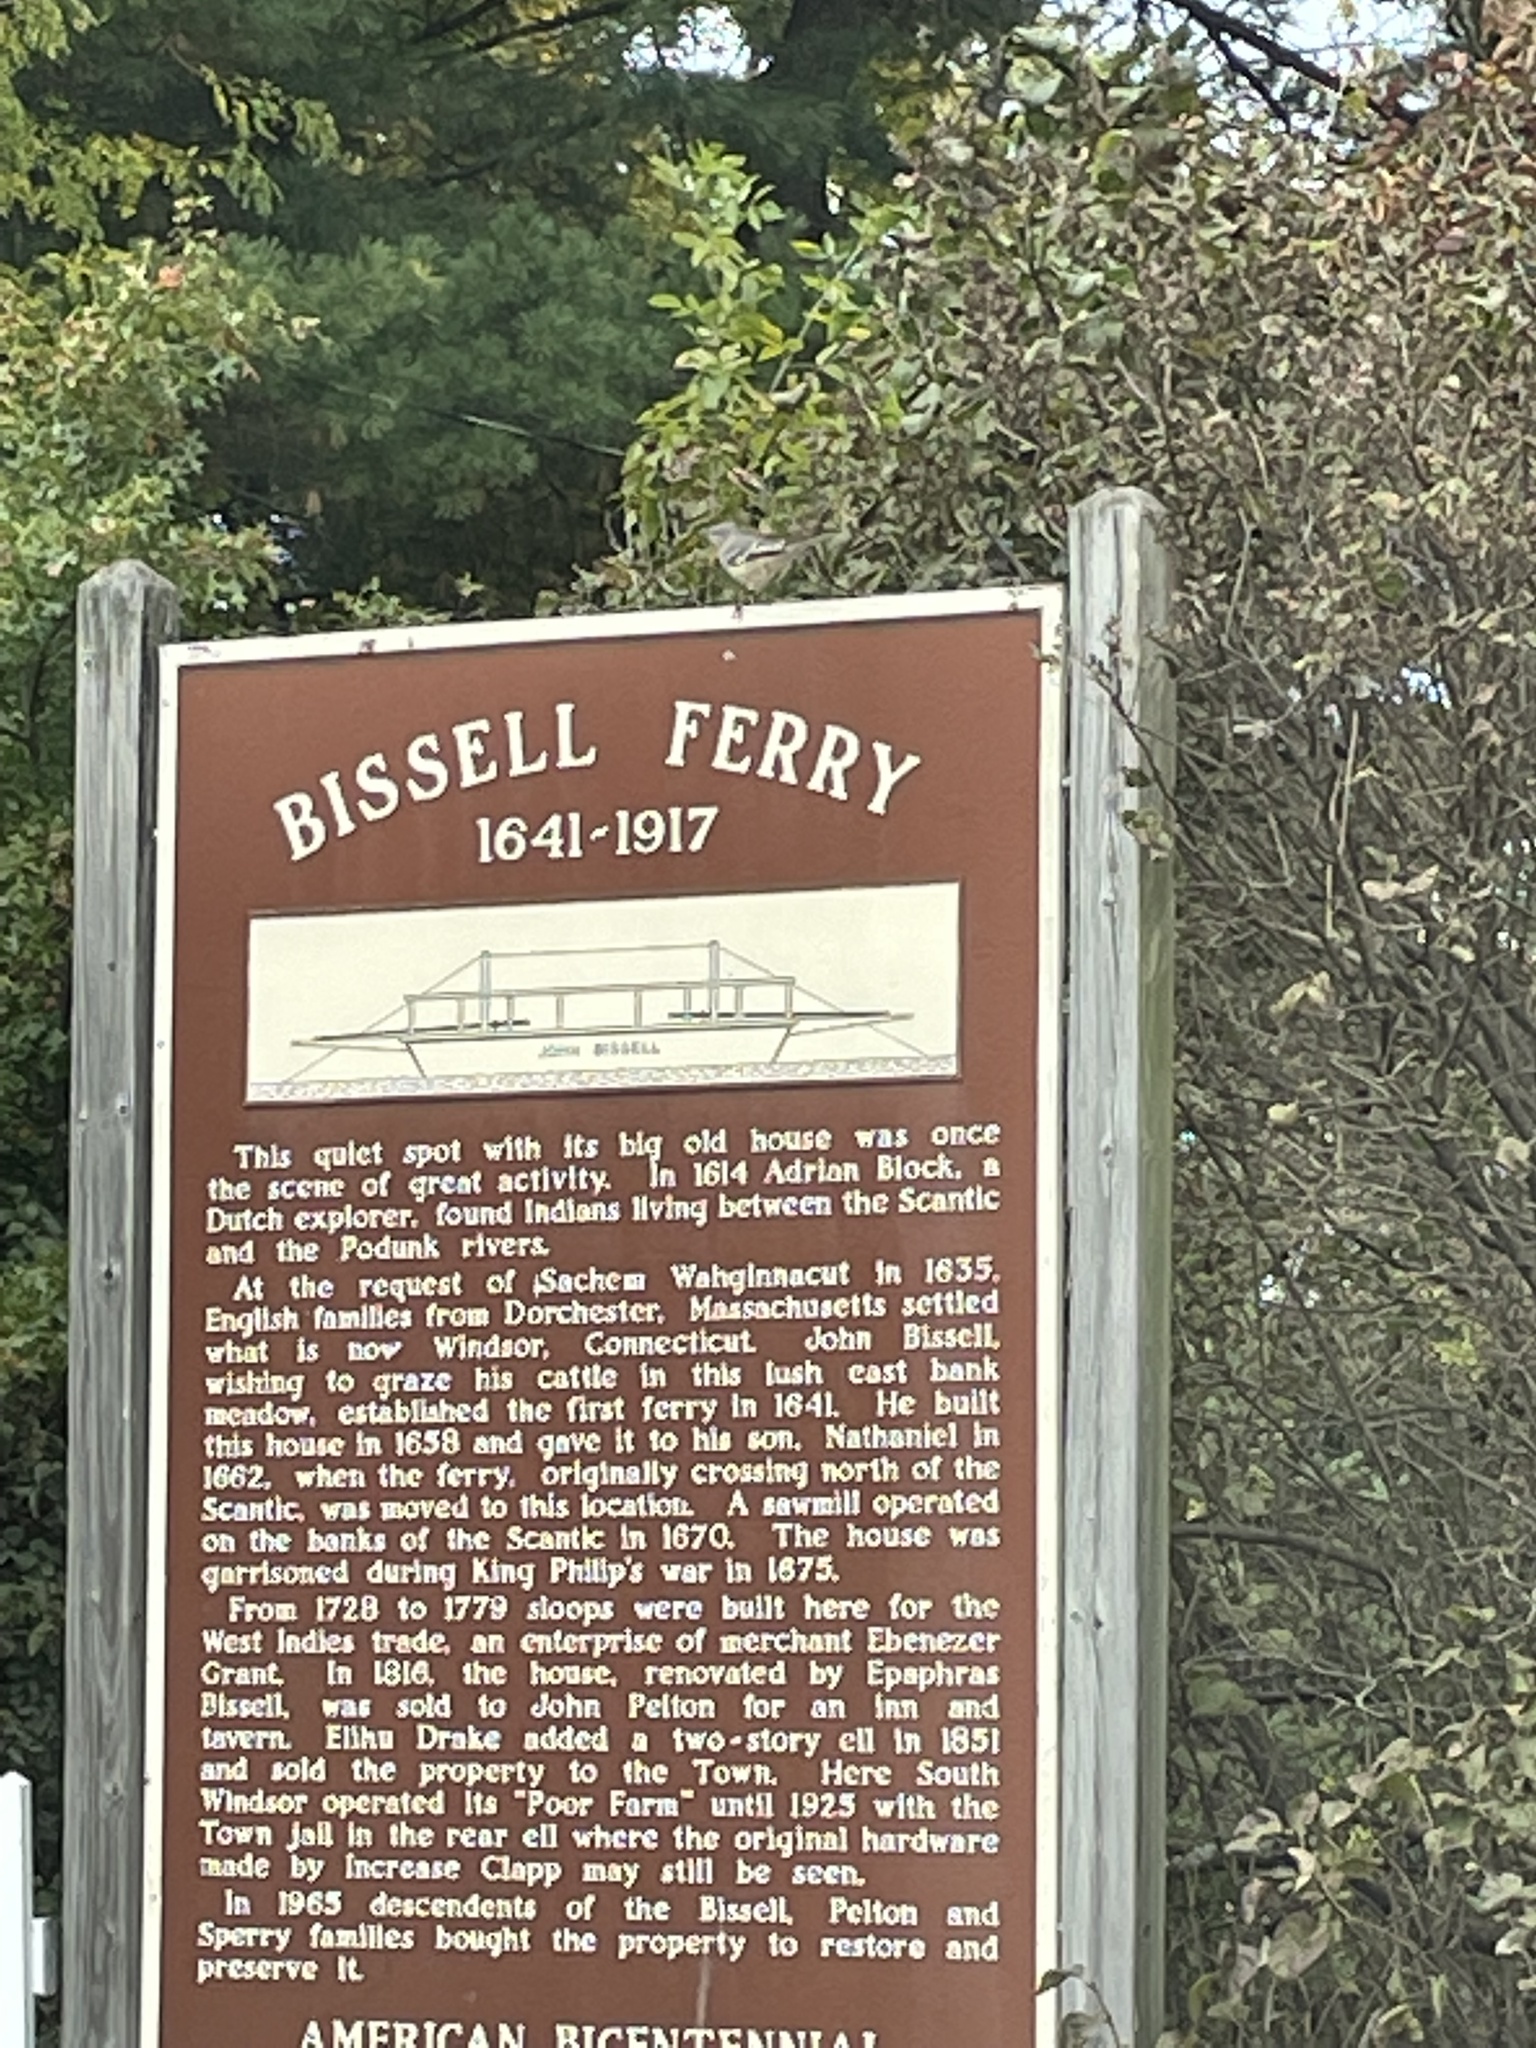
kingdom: Animalia
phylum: Chordata
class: Aves
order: Passeriformes
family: Mimidae
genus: Mimus
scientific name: Mimus polyglottos
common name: Northern mockingbird
